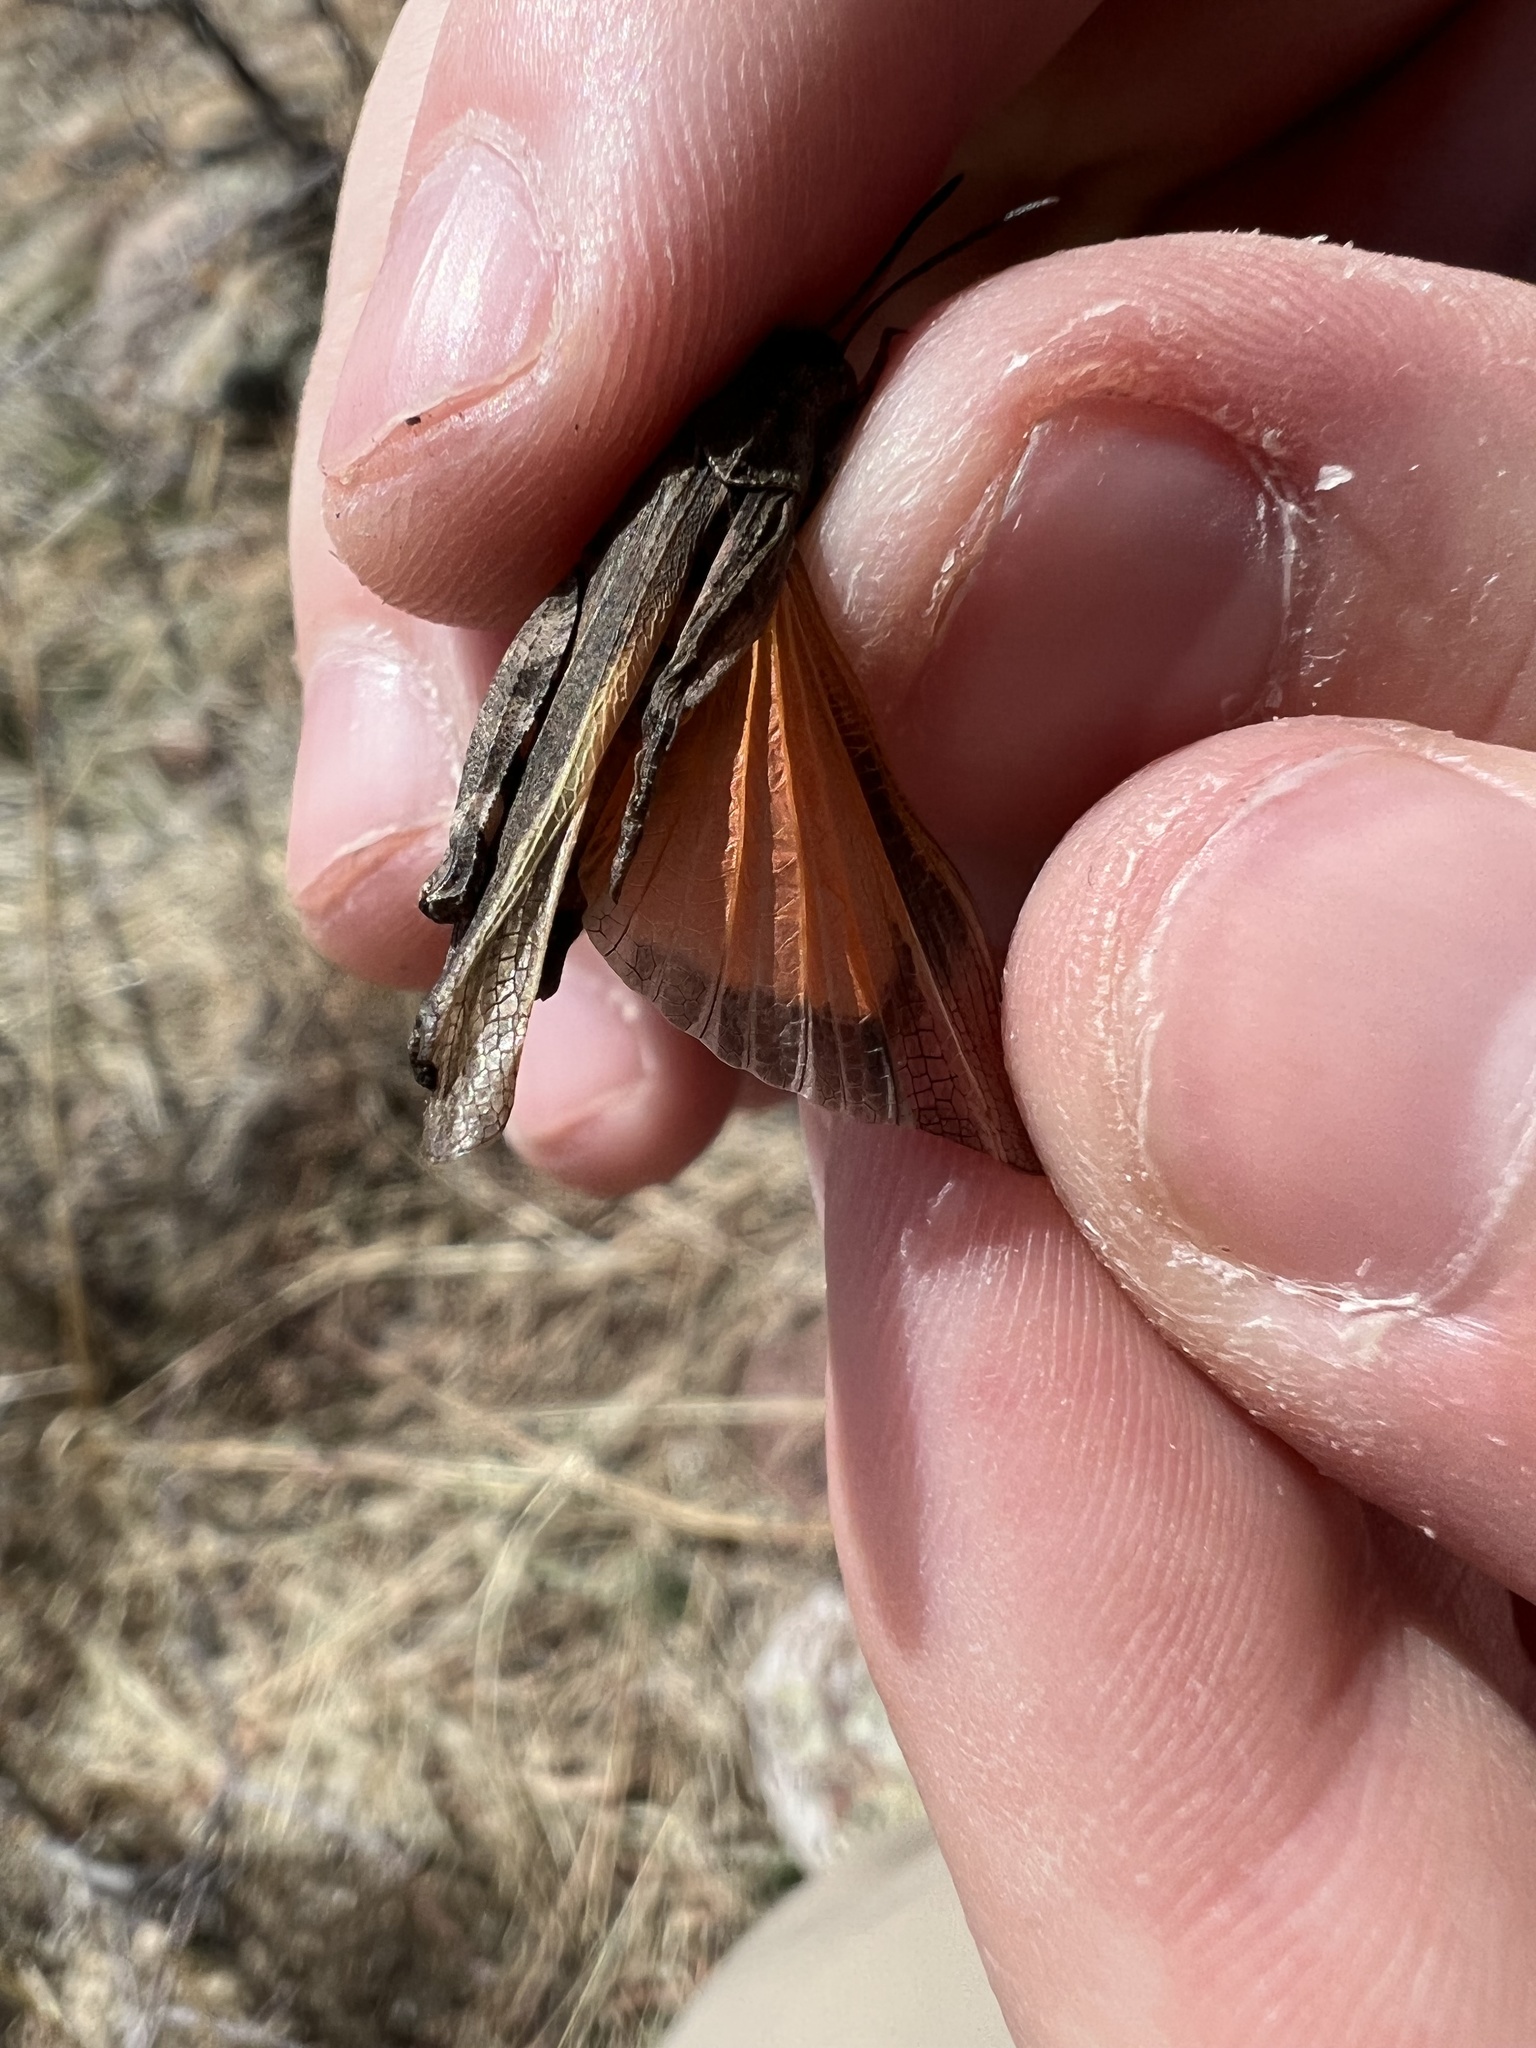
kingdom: Animalia
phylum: Arthropoda
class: Insecta
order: Orthoptera
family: Acrididae
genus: Arphia
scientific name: Arphia conspersa
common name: Speckle-winged rangeland grasshopper
